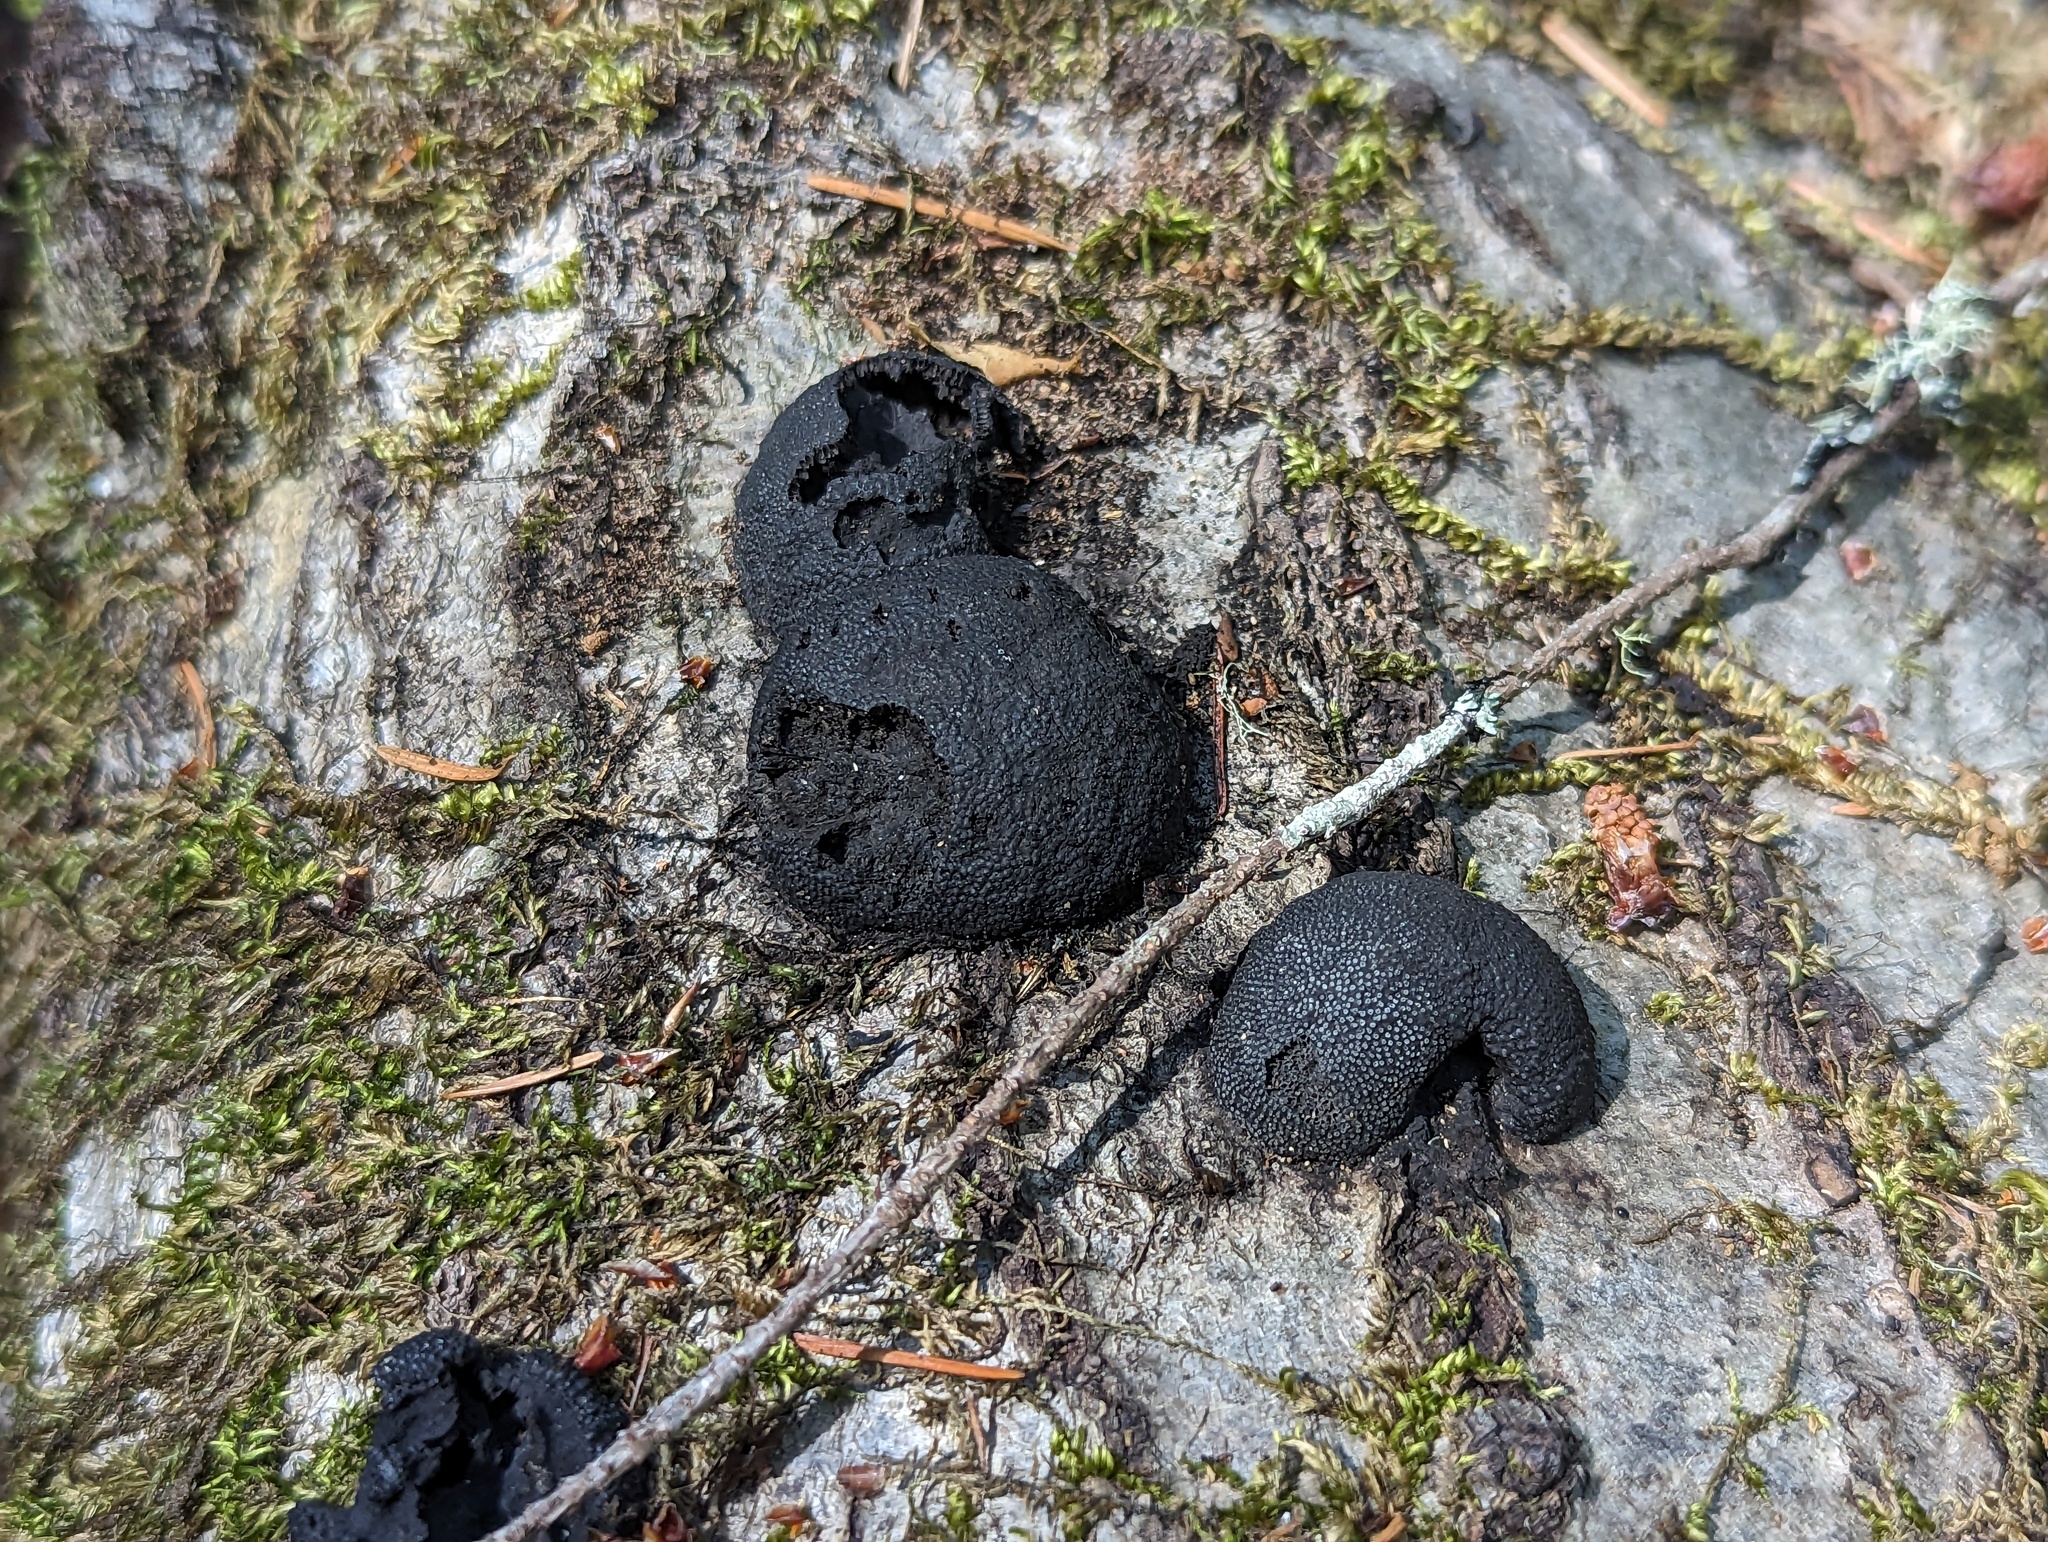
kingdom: Fungi
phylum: Ascomycota
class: Sordariomycetes
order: Xylariales
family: Hypoxylaceae
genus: Annulohypoxylon
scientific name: Annulohypoxylon thouarsianum
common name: Cramp balls
